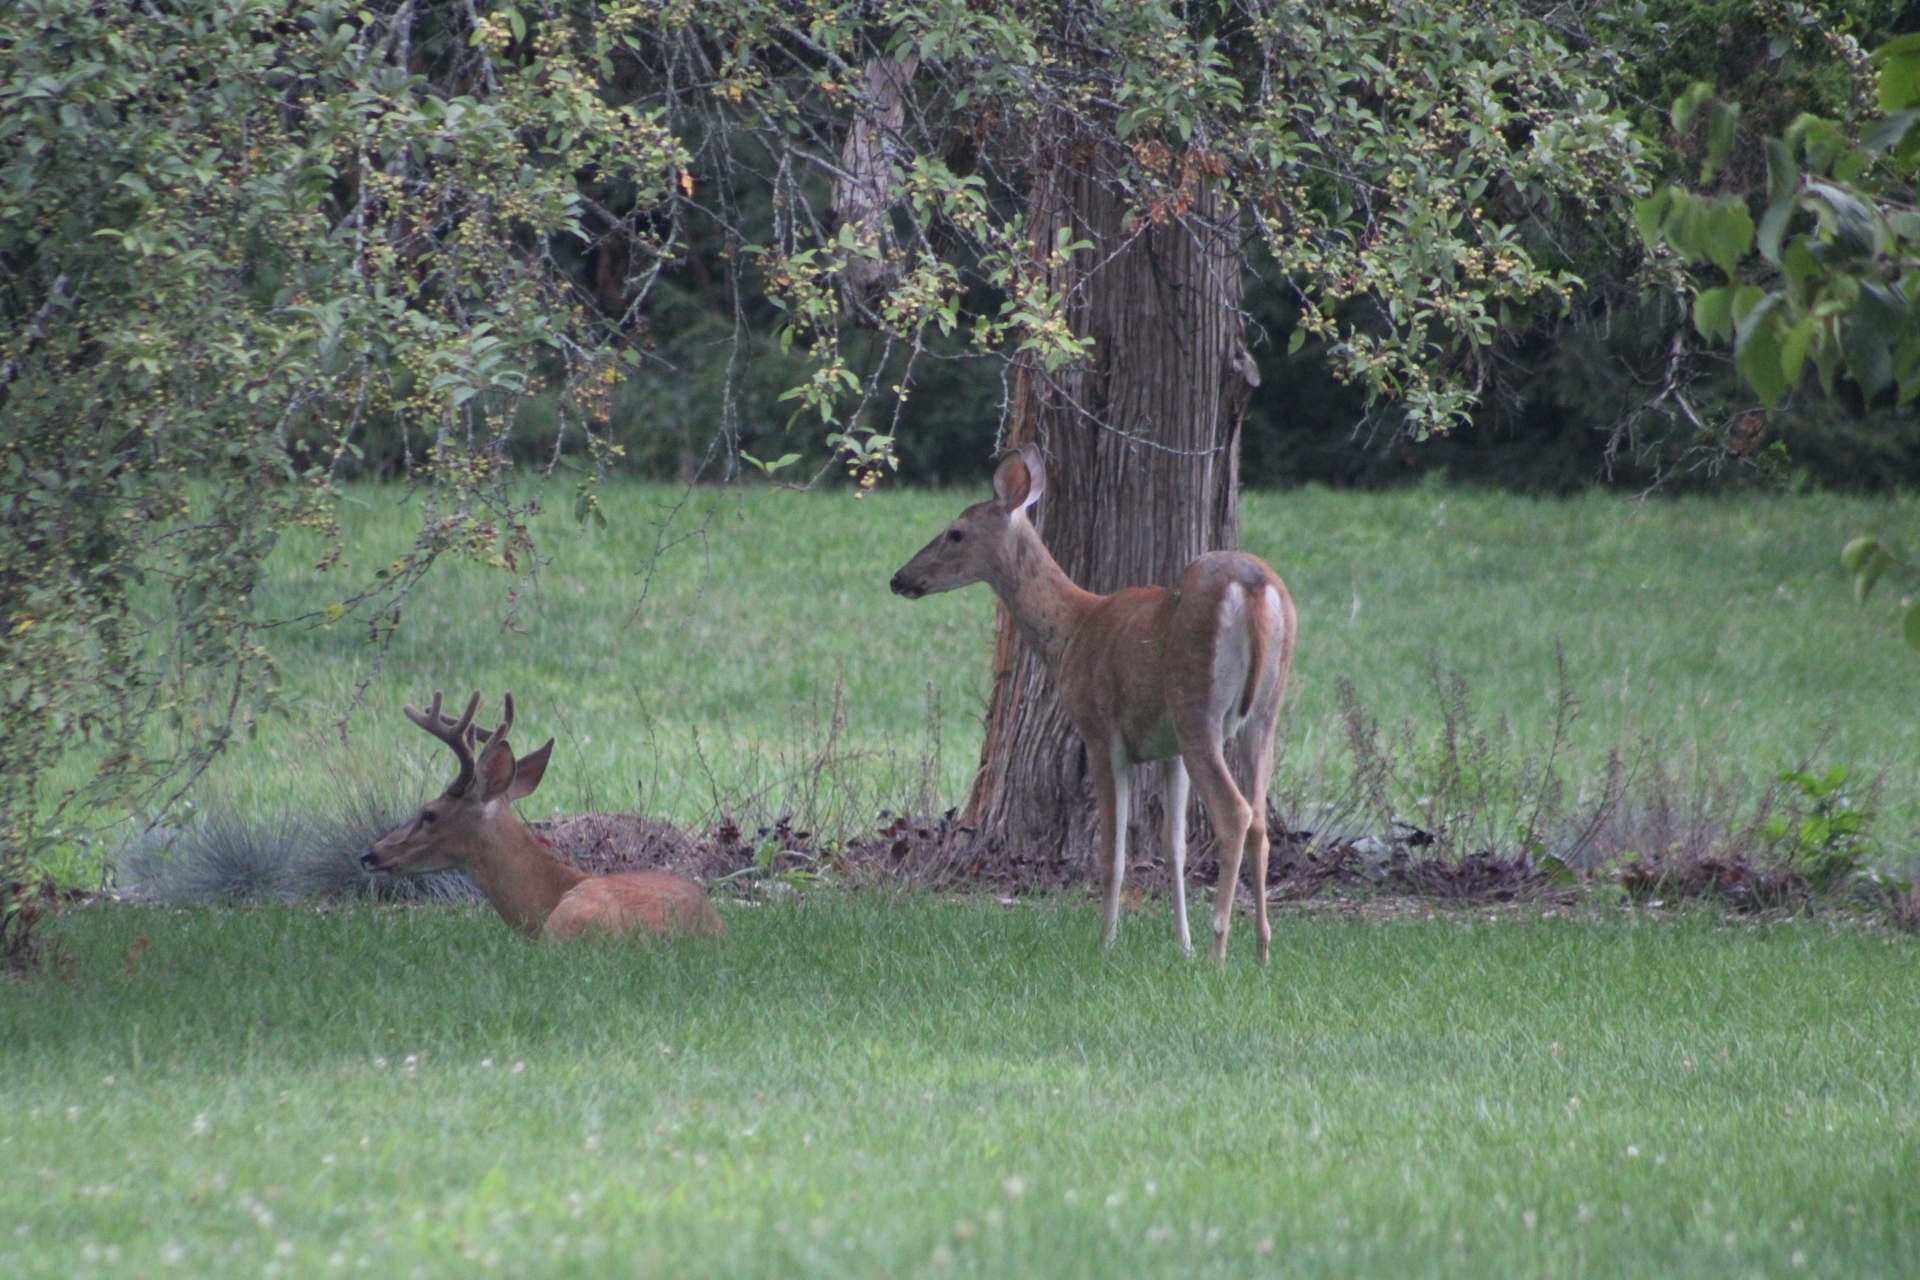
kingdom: Animalia
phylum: Chordata
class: Mammalia
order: Artiodactyla
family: Cervidae
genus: Odocoileus
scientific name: Odocoileus virginianus
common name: White-tailed deer
